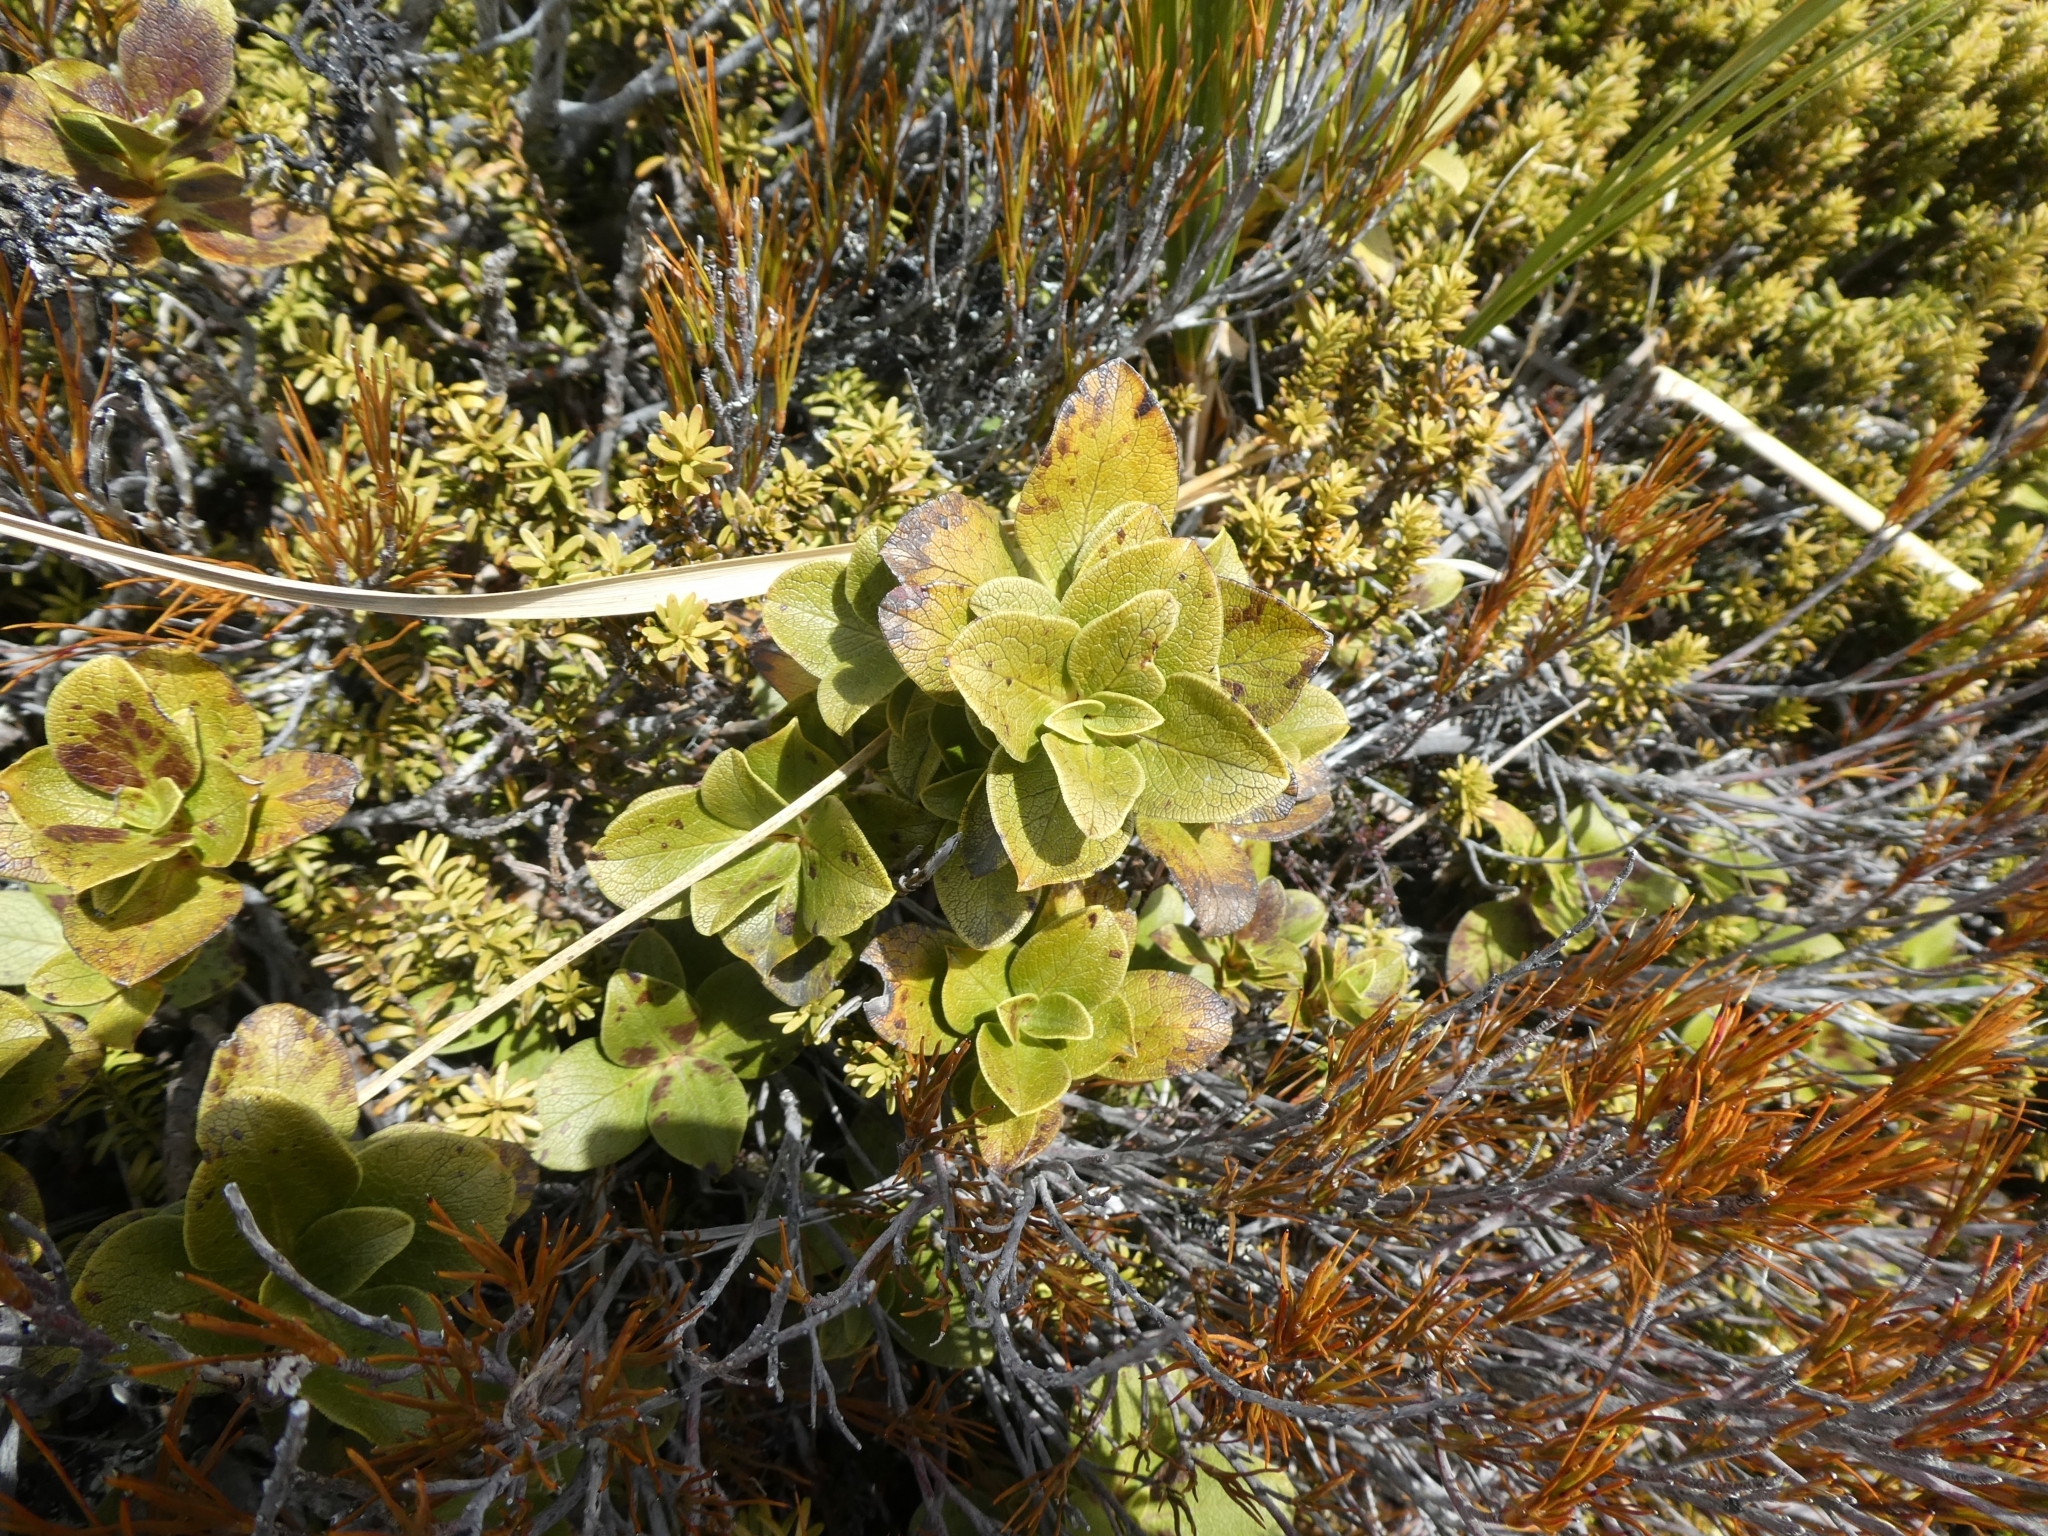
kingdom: Plantae
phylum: Tracheophyta
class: Magnoliopsida
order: Gentianales
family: Rubiaceae
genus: Coprosma
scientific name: Coprosma serrulata
